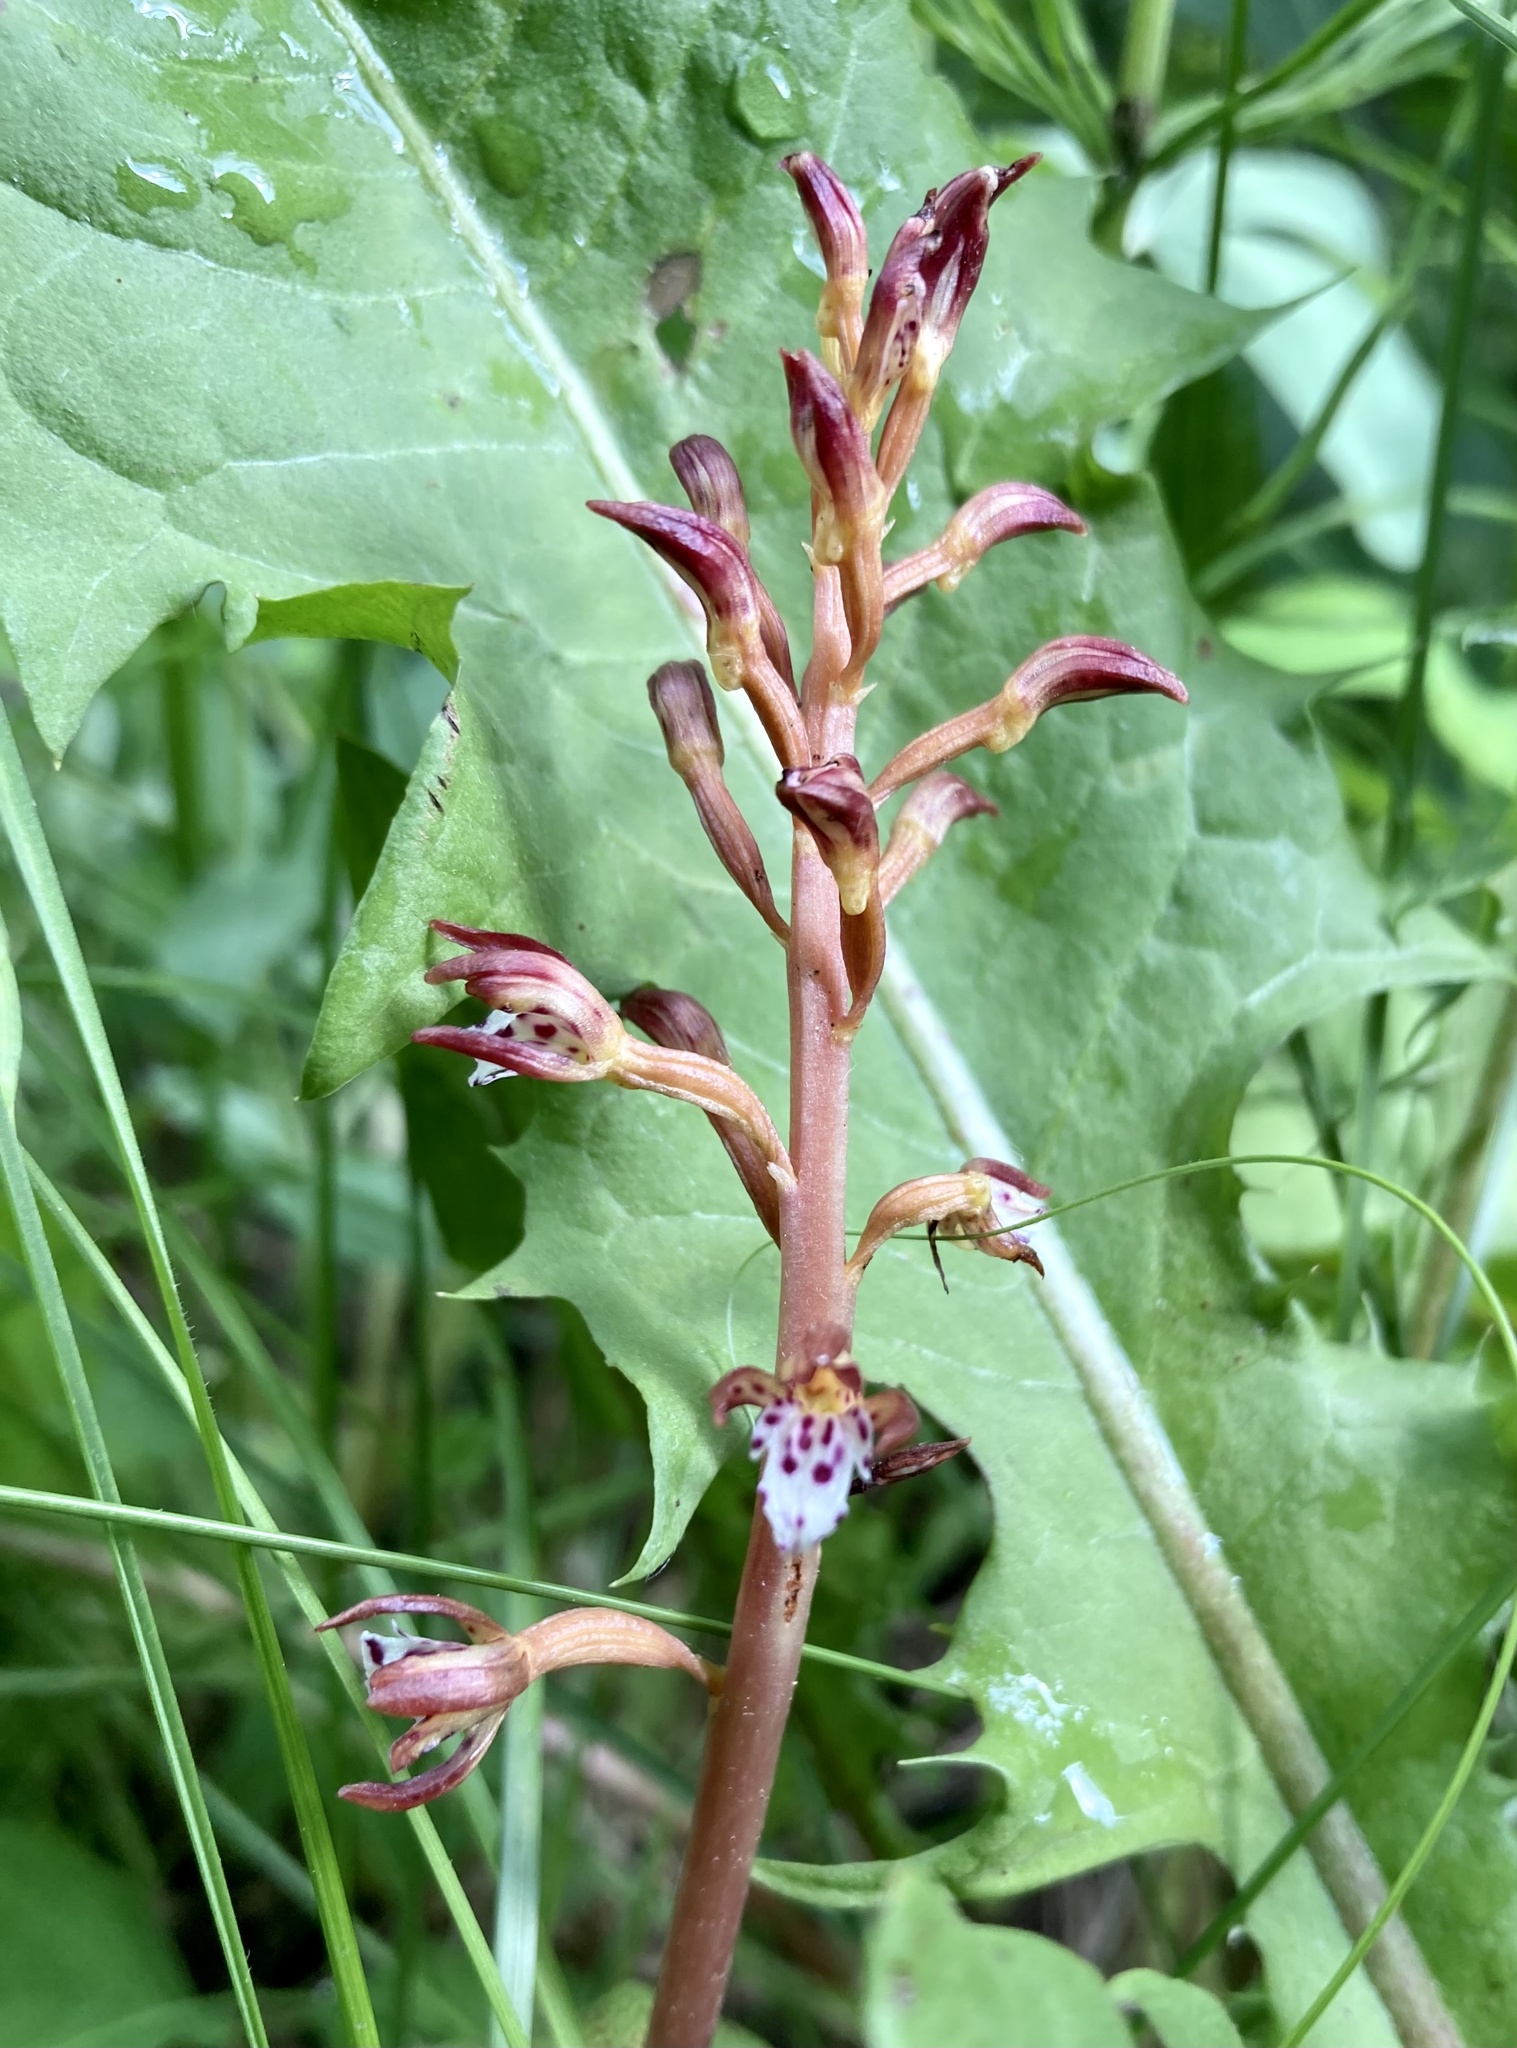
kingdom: Plantae
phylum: Tracheophyta
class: Liliopsida
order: Asparagales
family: Orchidaceae
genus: Corallorhiza
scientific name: Corallorhiza maculata
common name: Spotted coralroot
